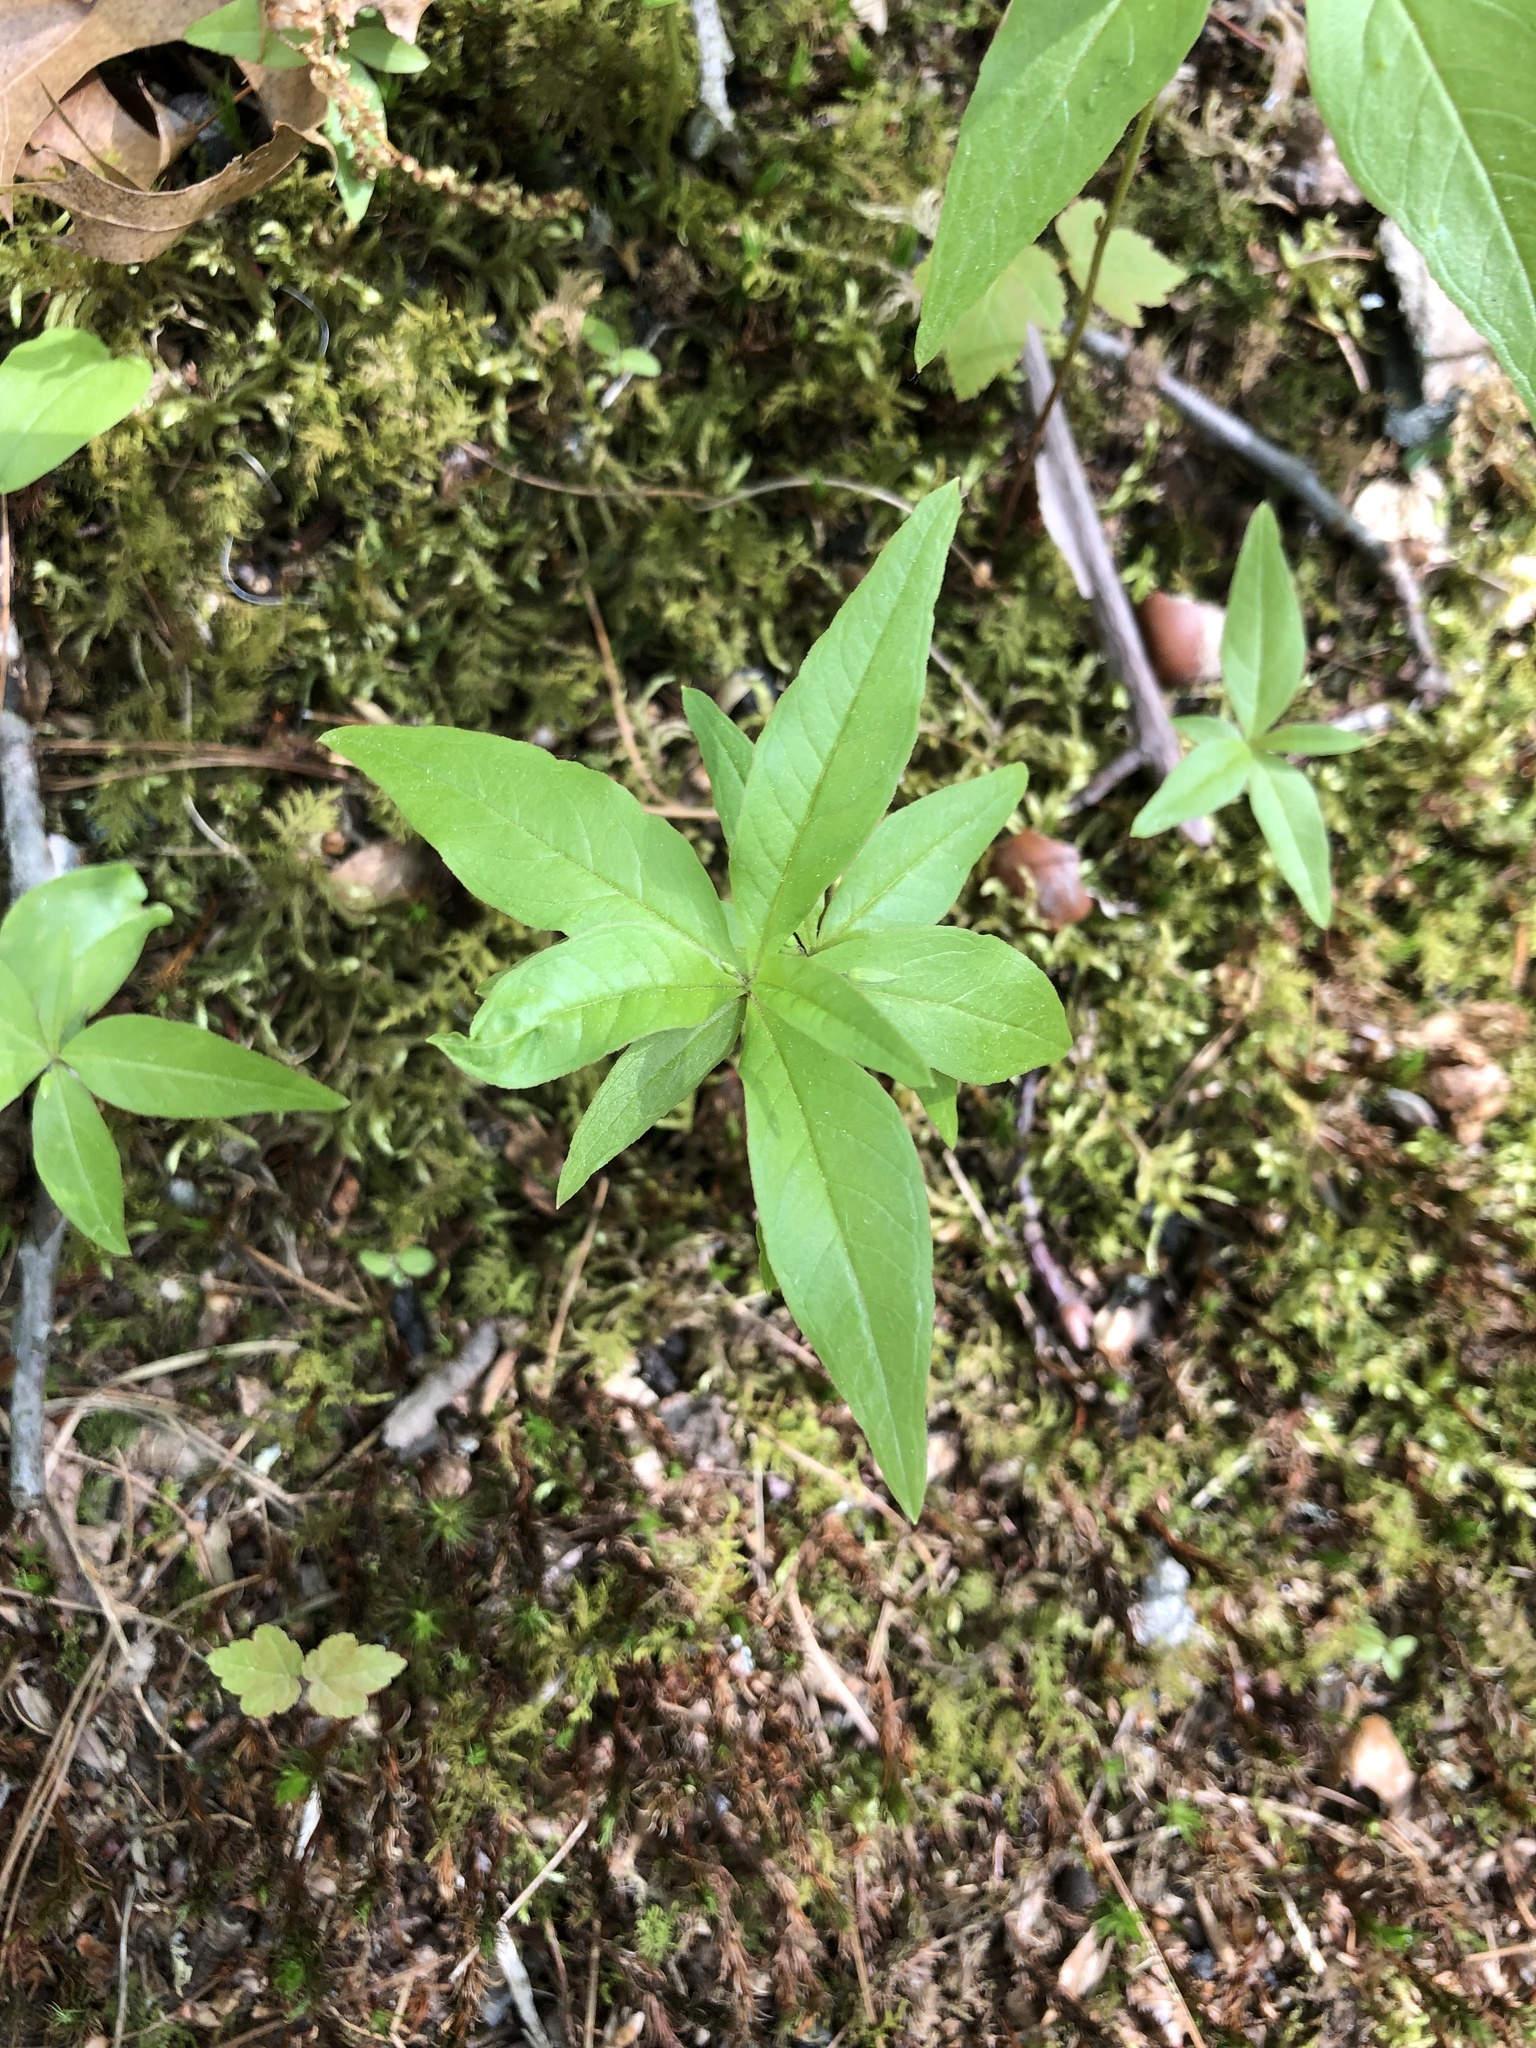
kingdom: Plantae
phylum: Tracheophyta
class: Magnoliopsida
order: Ericales
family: Primulaceae
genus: Lysimachia
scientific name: Lysimachia borealis
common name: American starflower
